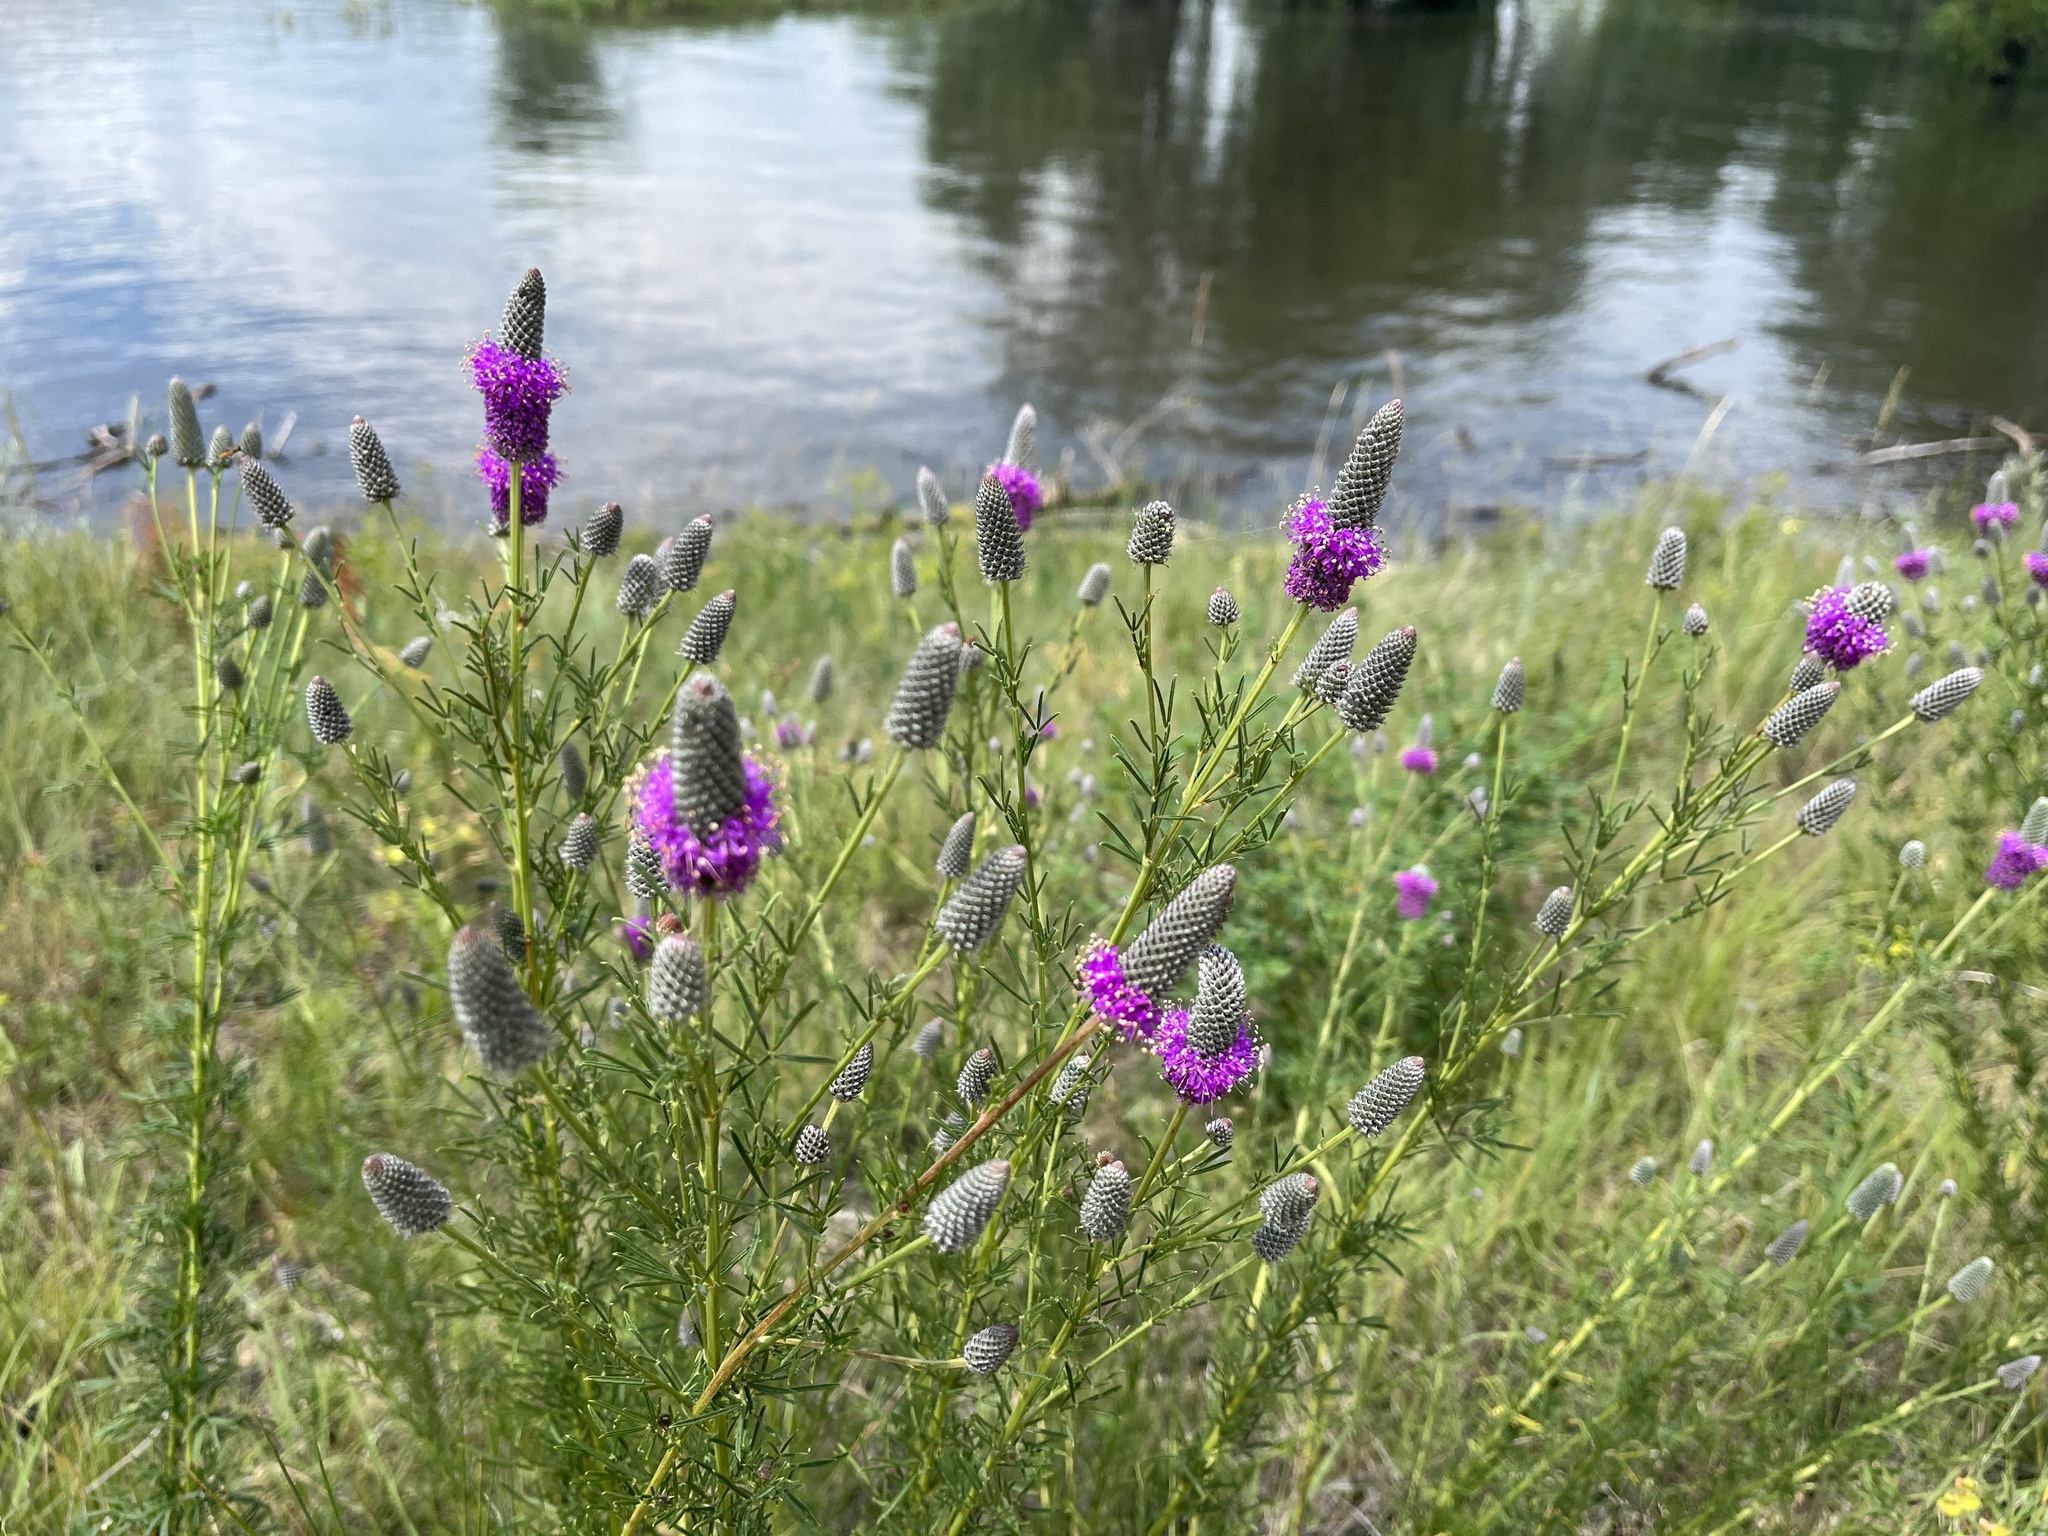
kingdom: Plantae
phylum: Tracheophyta
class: Magnoliopsida
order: Fabales
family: Fabaceae
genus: Dalea
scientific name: Dalea purpurea
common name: Purple prairie-clover
